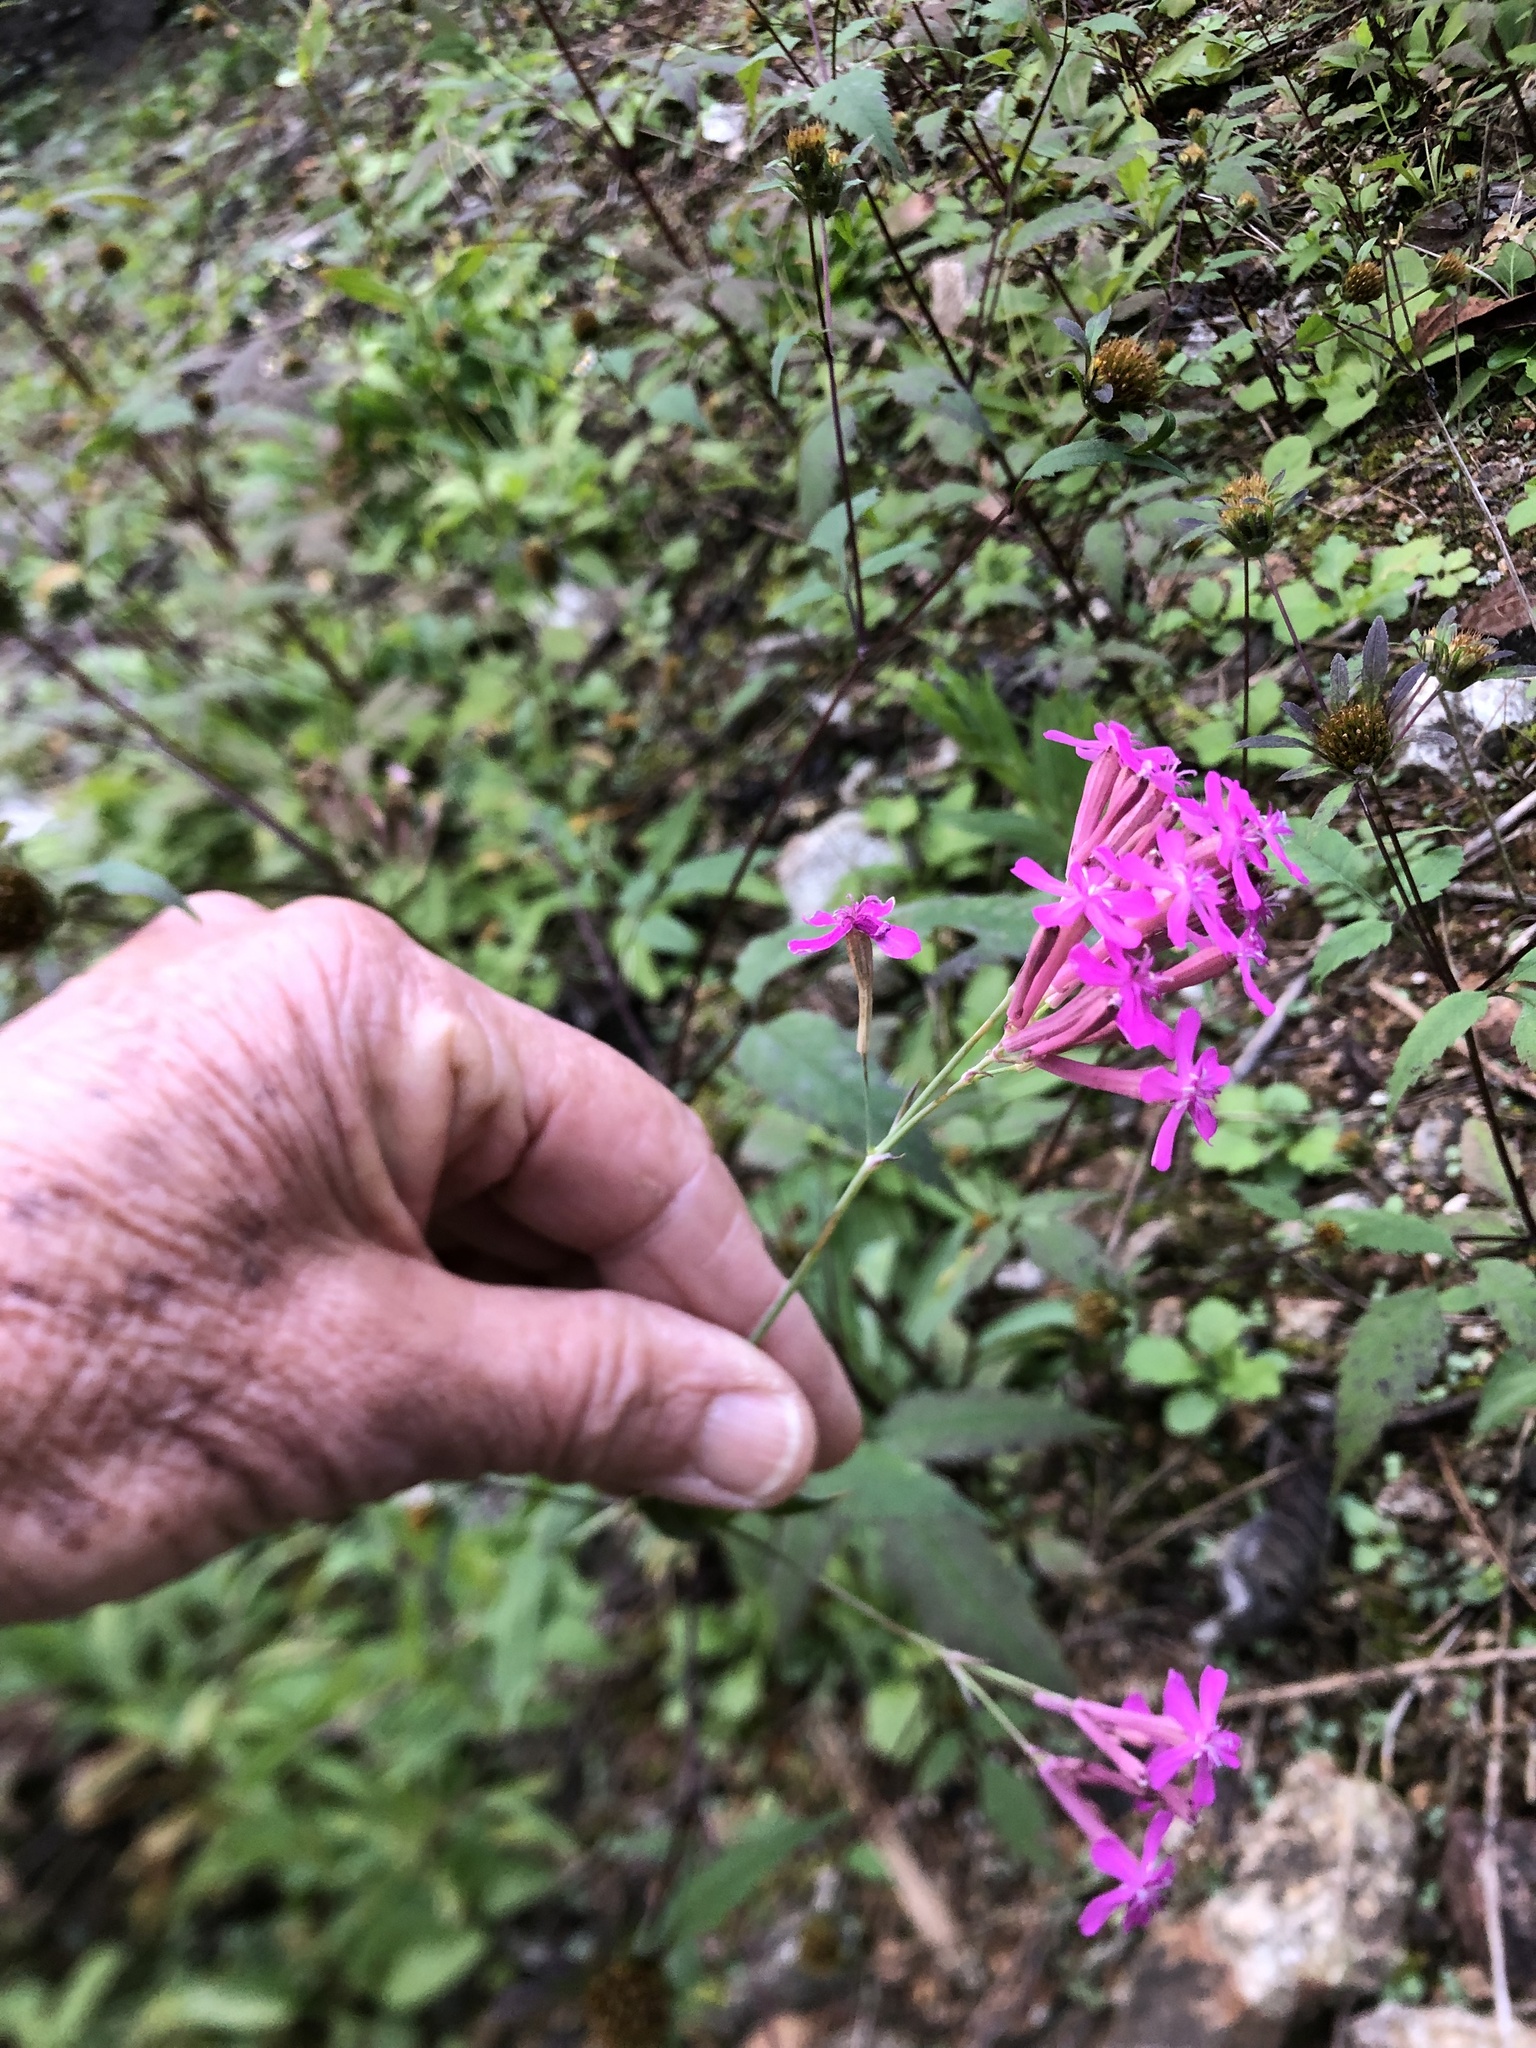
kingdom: Plantae
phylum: Tracheophyta
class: Magnoliopsida
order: Caryophyllales
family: Caryophyllaceae
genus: Atocion
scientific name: Atocion armeria
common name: Sweet william catchfly
